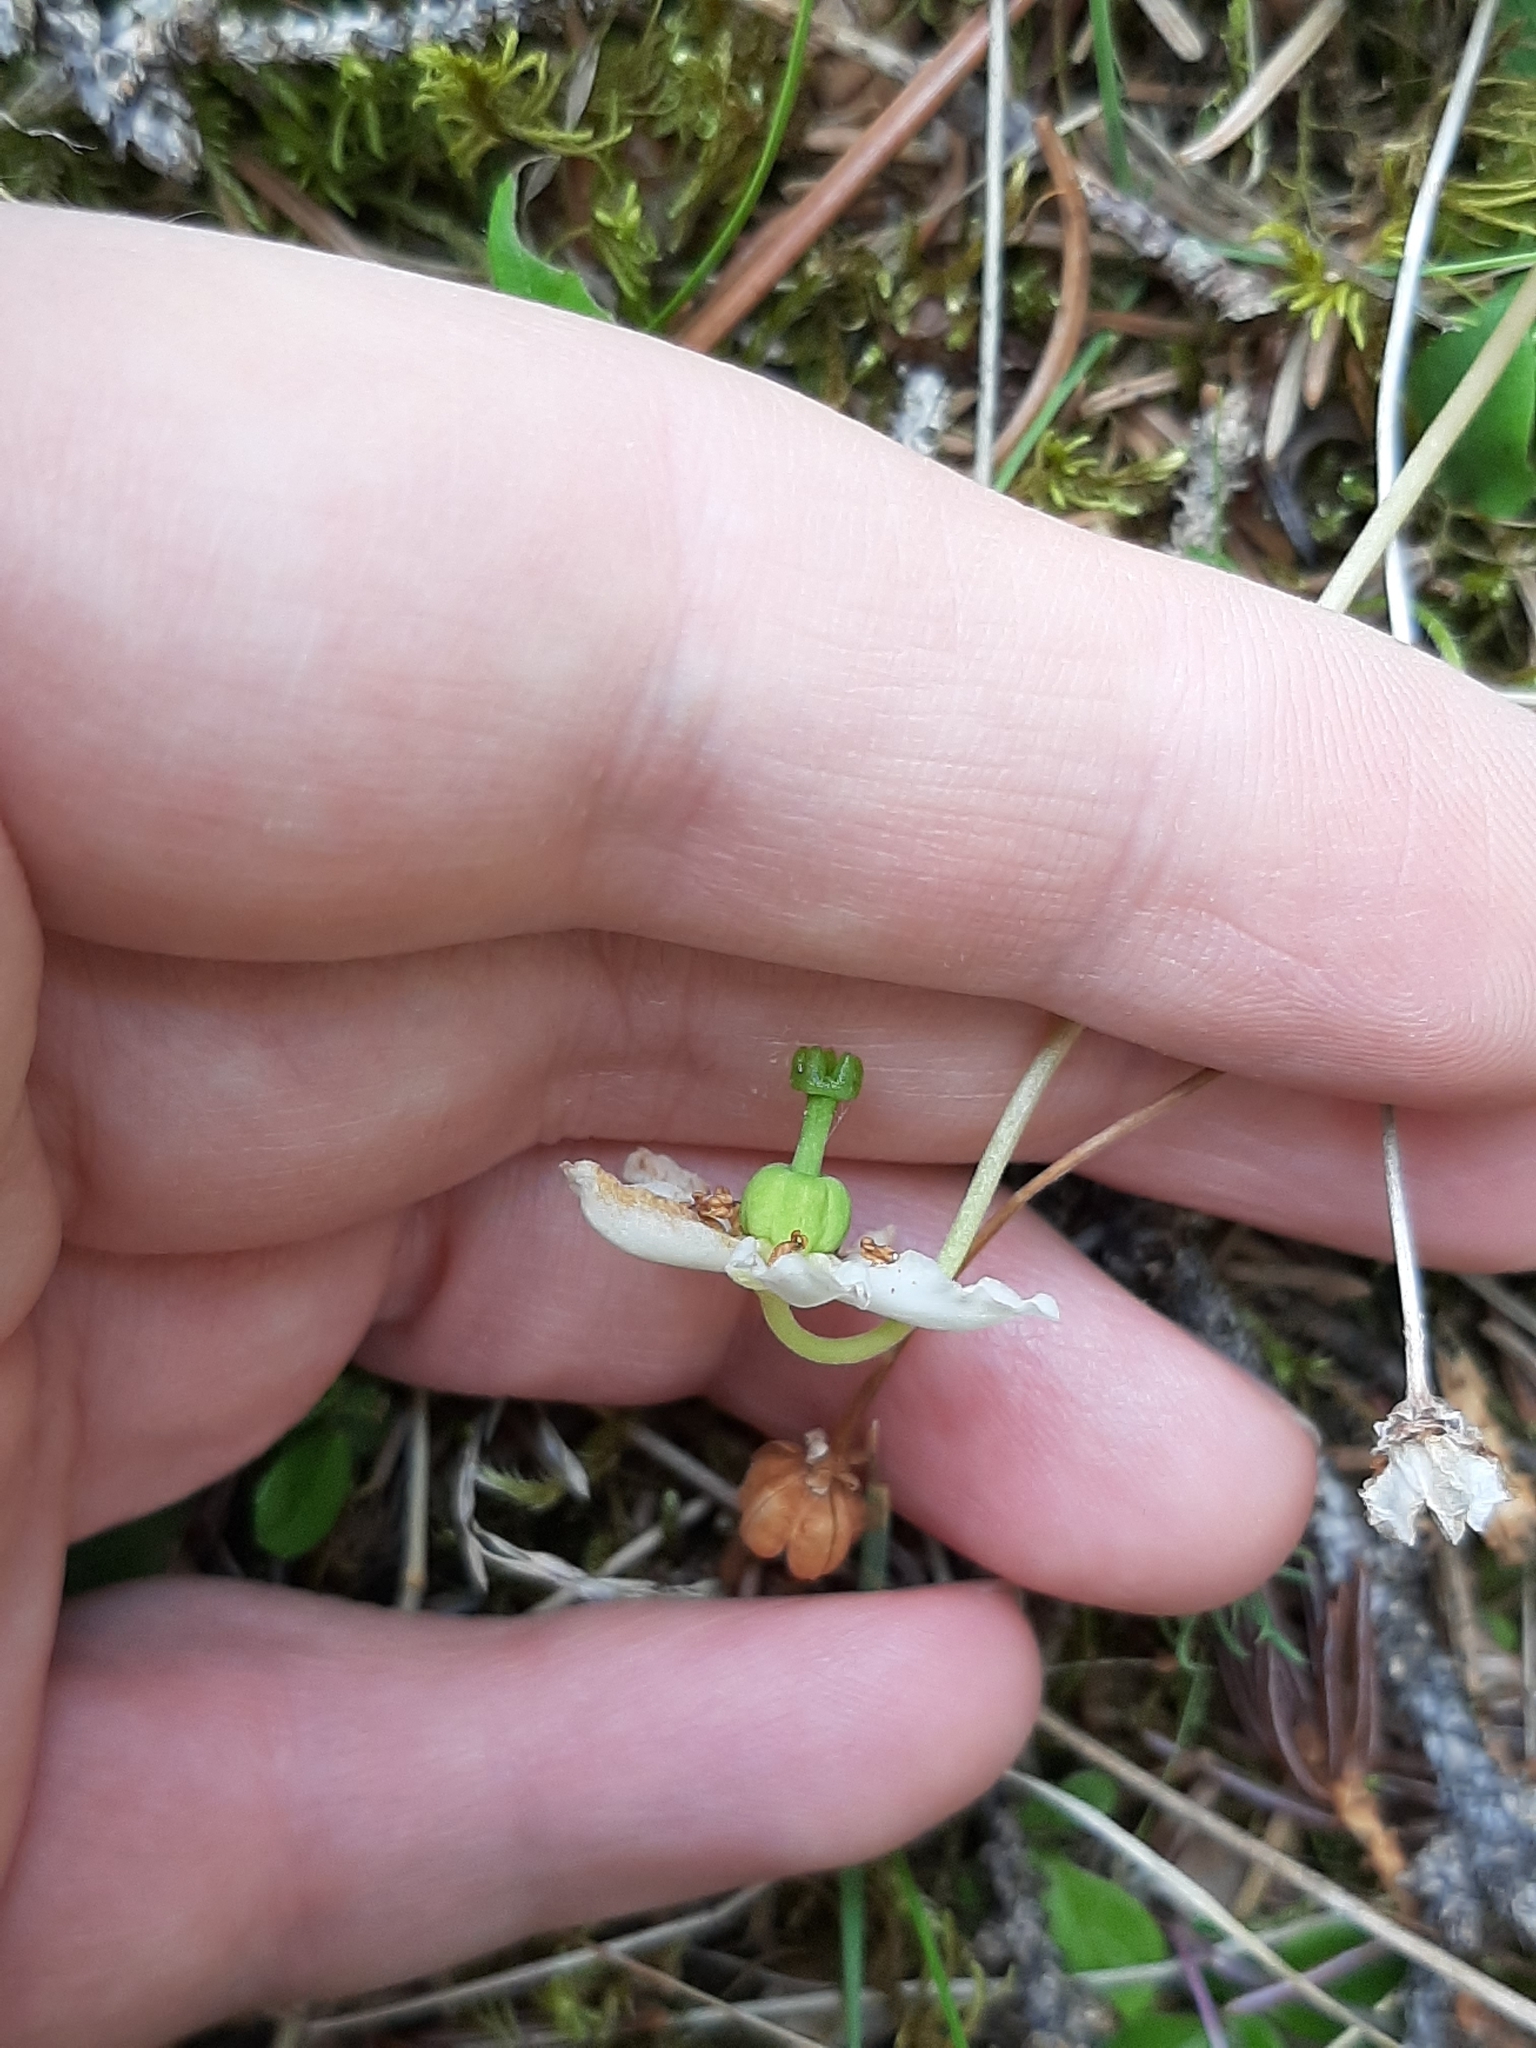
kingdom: Plantae
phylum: Tracheophyta
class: Magnoliopsida
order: Ericales
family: Ericaceae
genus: Moneses
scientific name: Moneses uniflora
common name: One-flowered wintergreen
